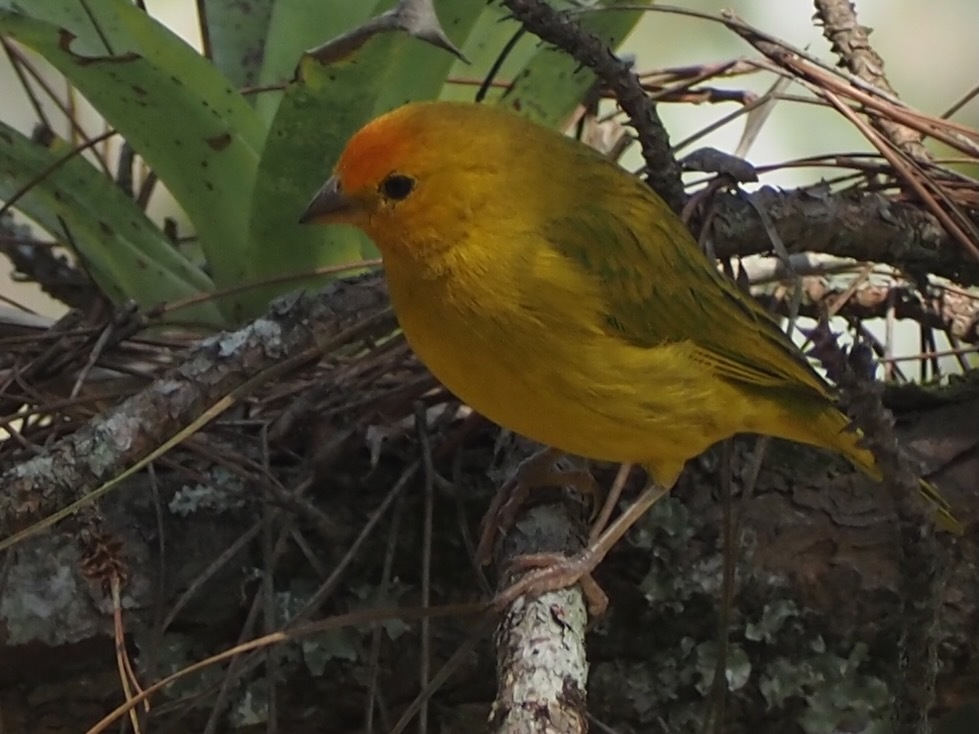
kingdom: Animalia
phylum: Chordata
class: Aves
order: Passeriformes
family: Thraupidae
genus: Sicalis
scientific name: Sicalis flaveola
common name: Saffron finch
